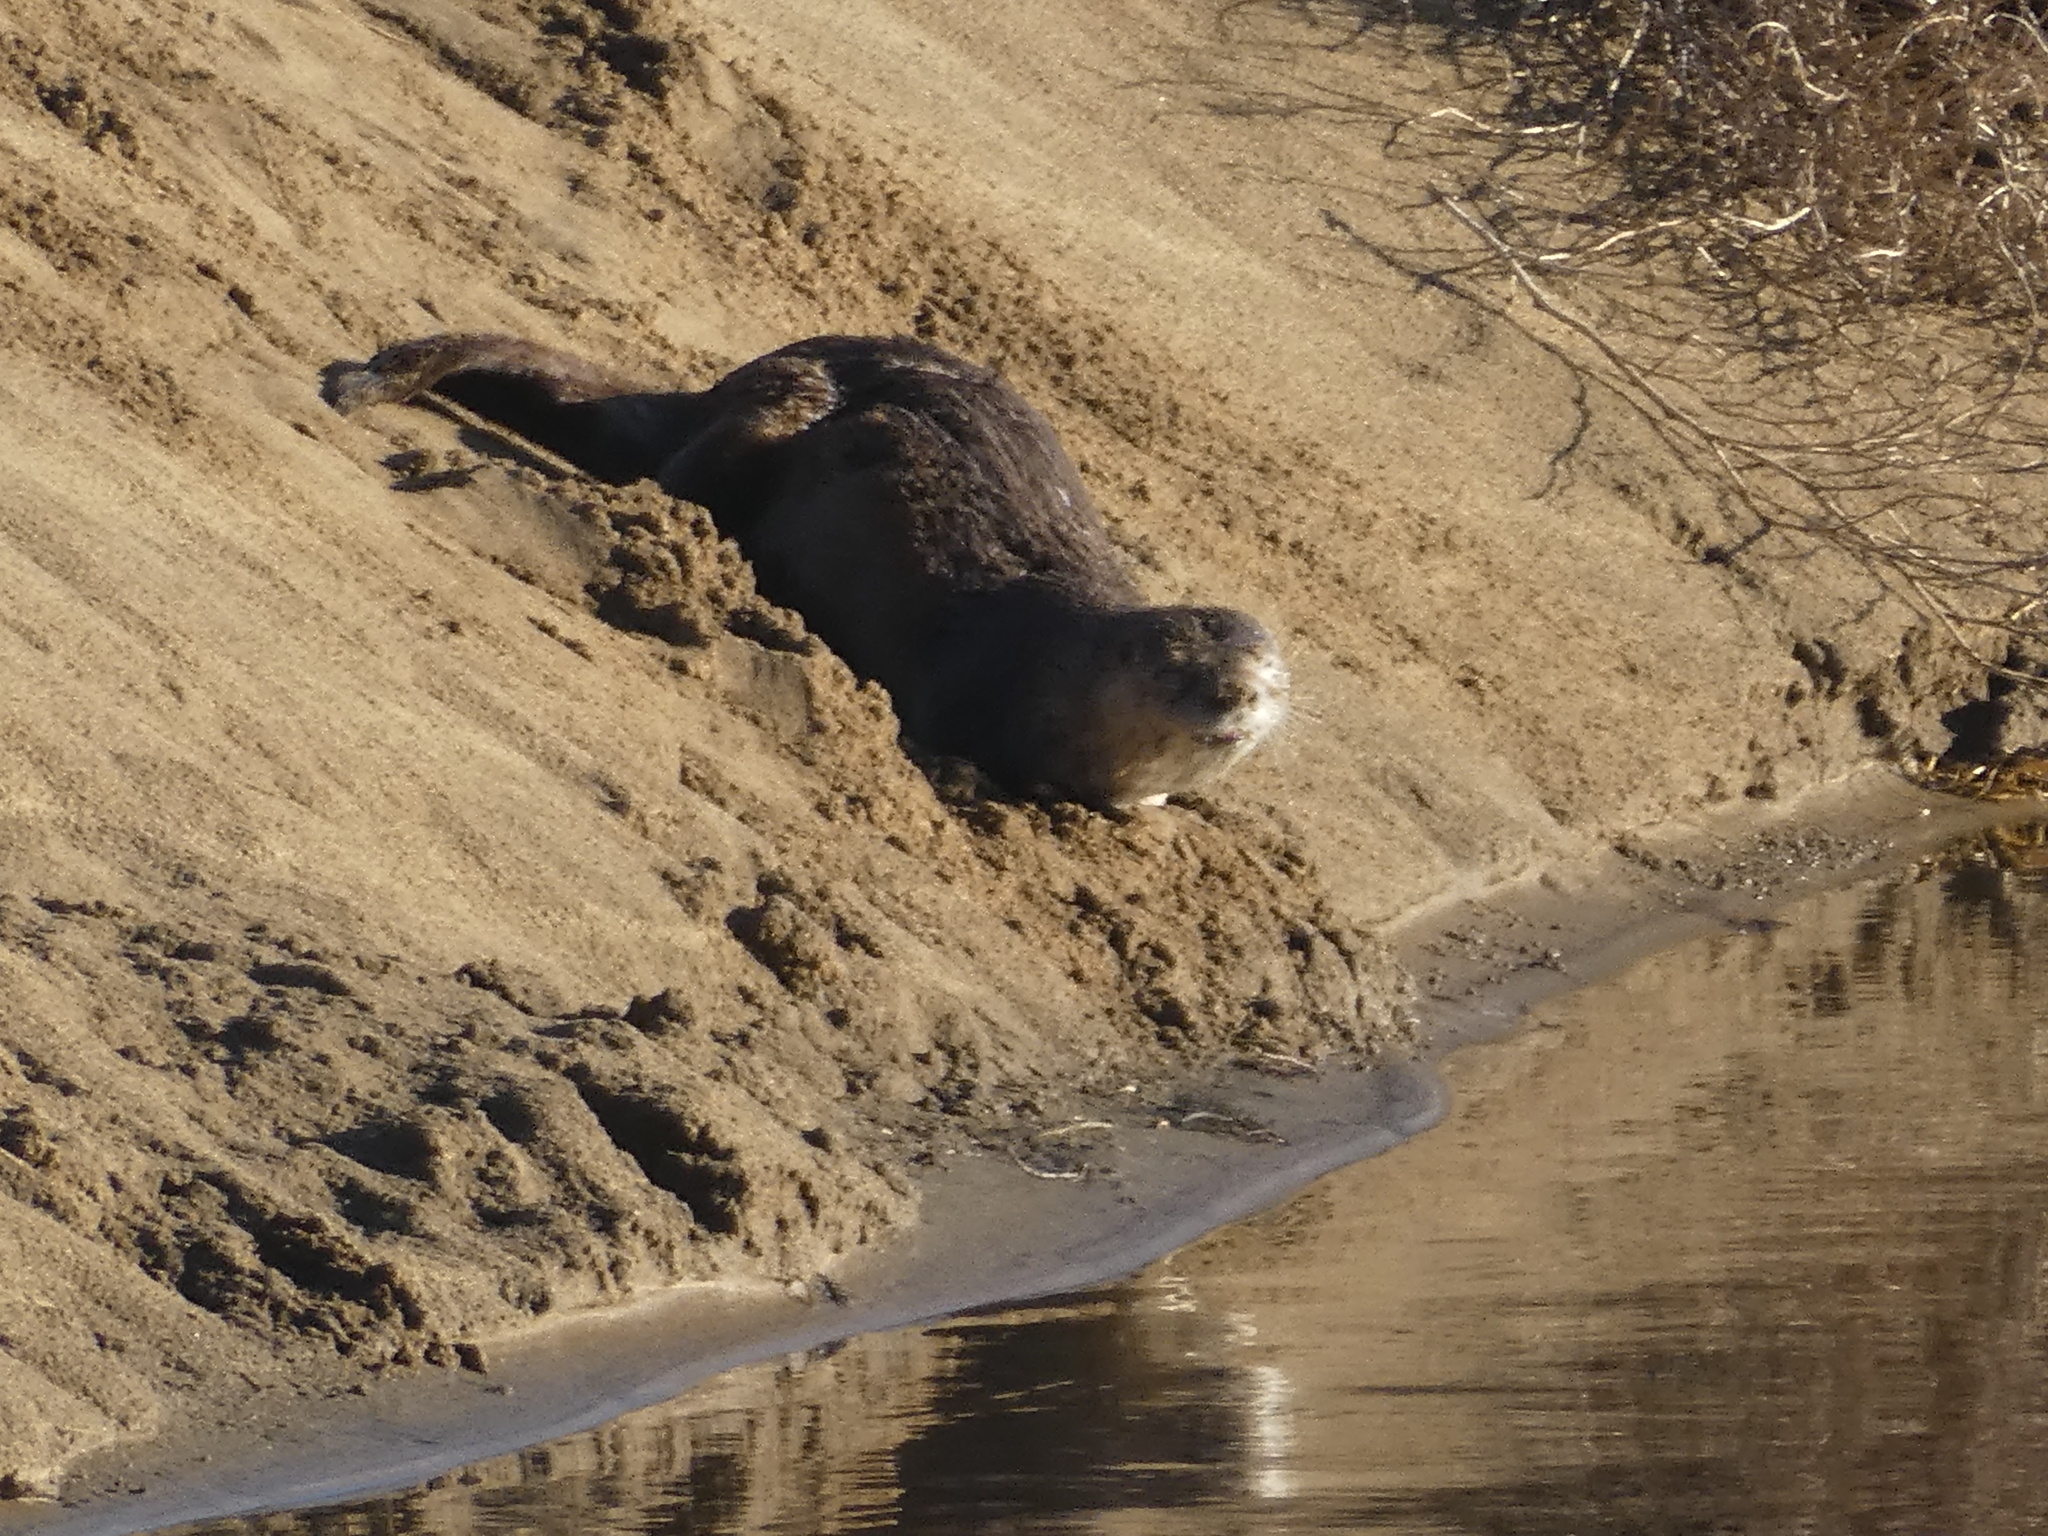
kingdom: Animalia
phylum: Chordata
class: Mammalia
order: Carnivora
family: Mustelidae
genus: Lontra
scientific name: Lontra canadensis
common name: North american river otter
